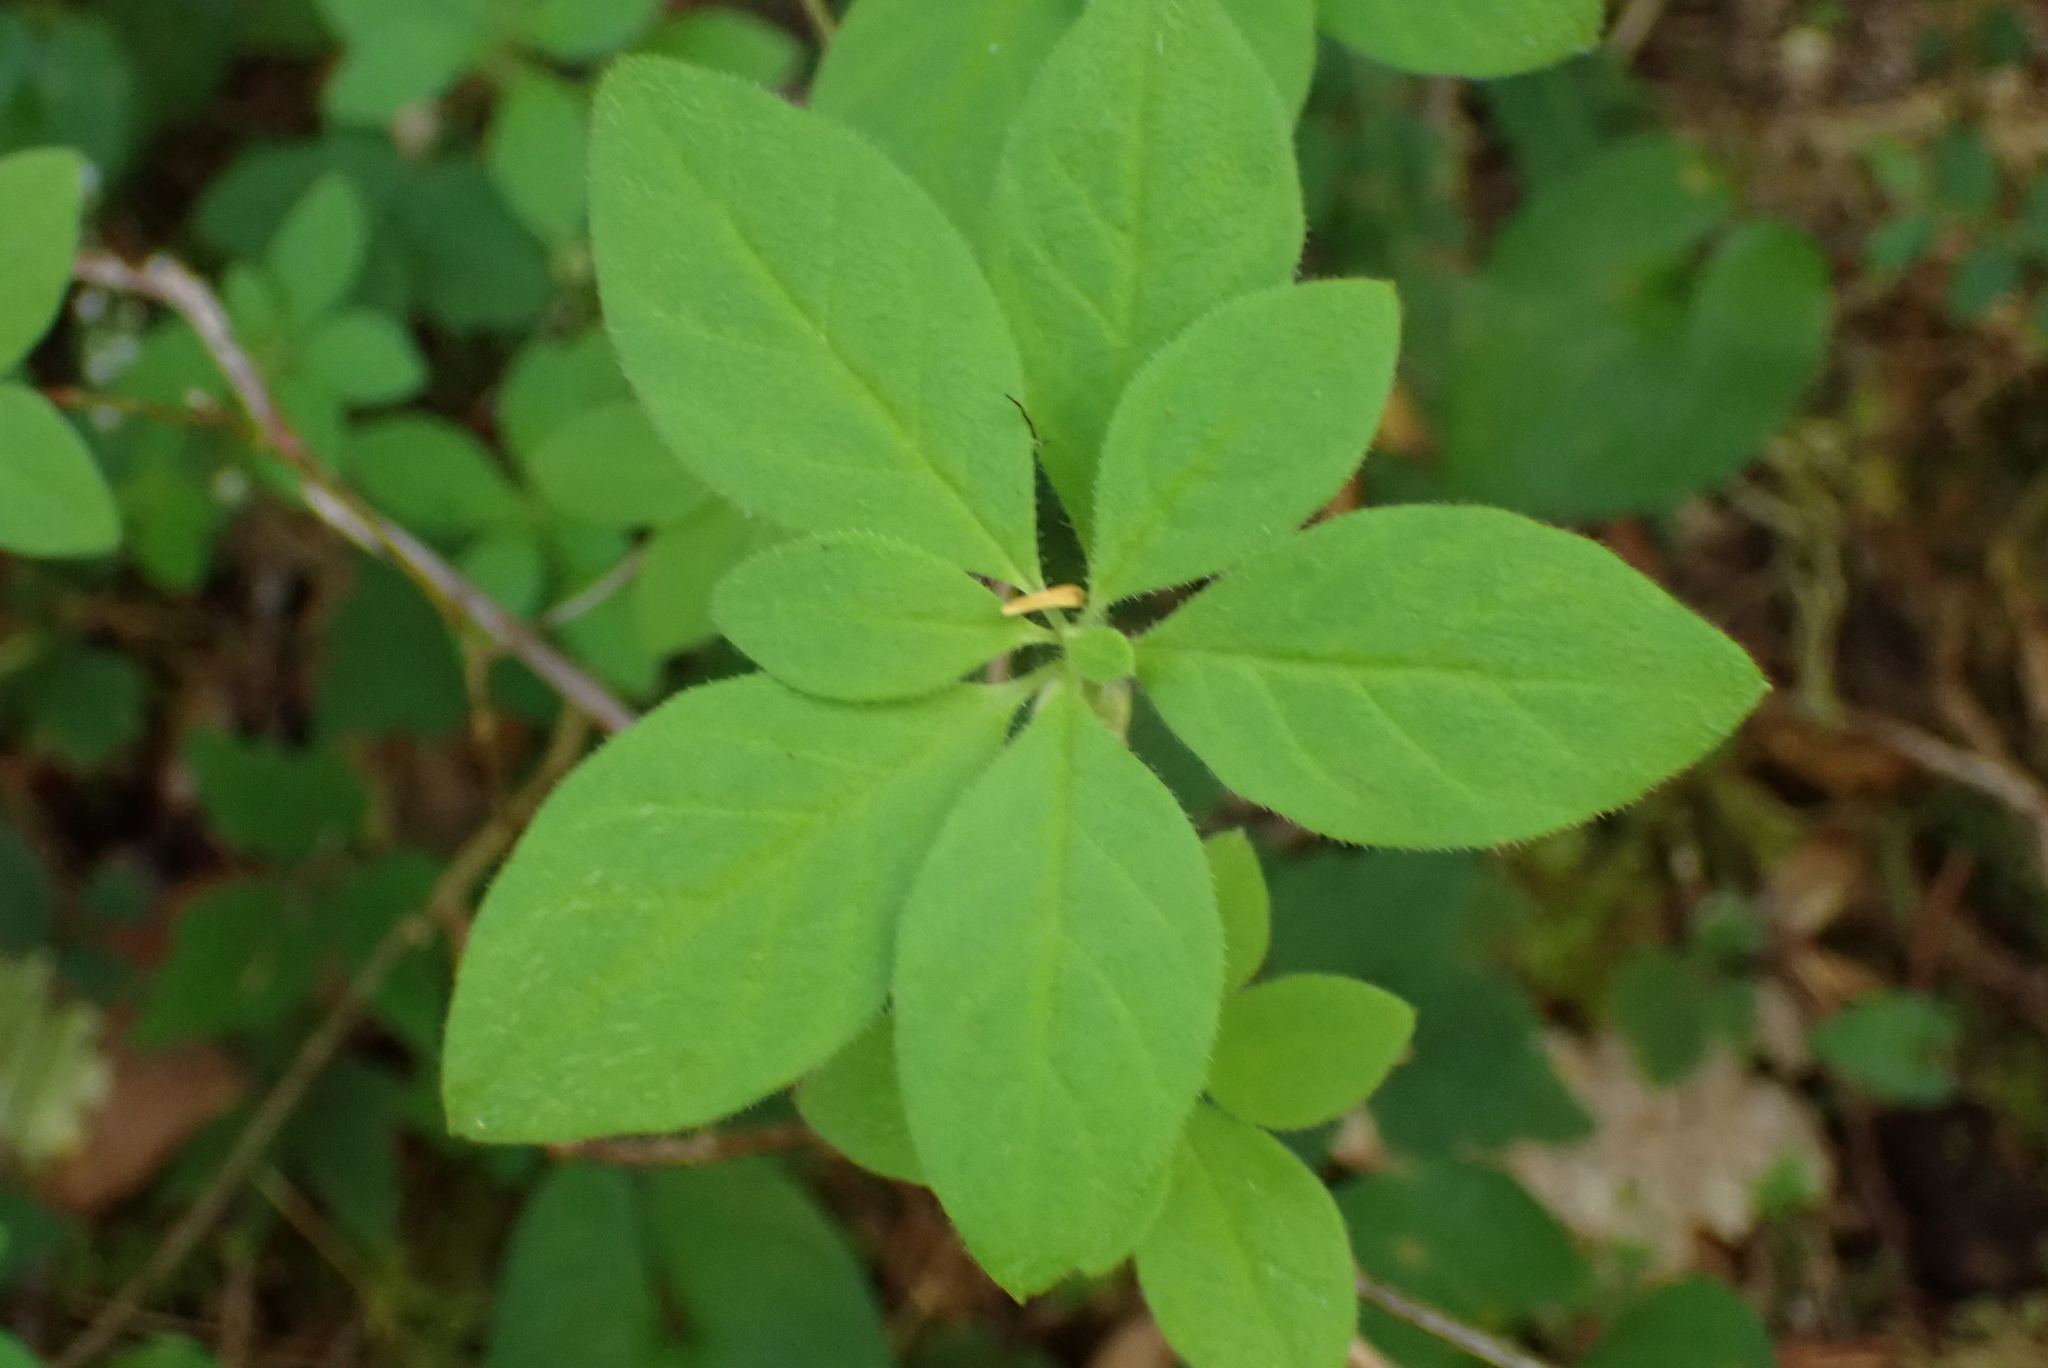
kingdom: Plantae
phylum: Tracheophyta
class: Magnoliopsida
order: Ericales
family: Ericaceae
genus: Rhododendron
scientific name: Rhododendron menziesii
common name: Pacific menziesia
